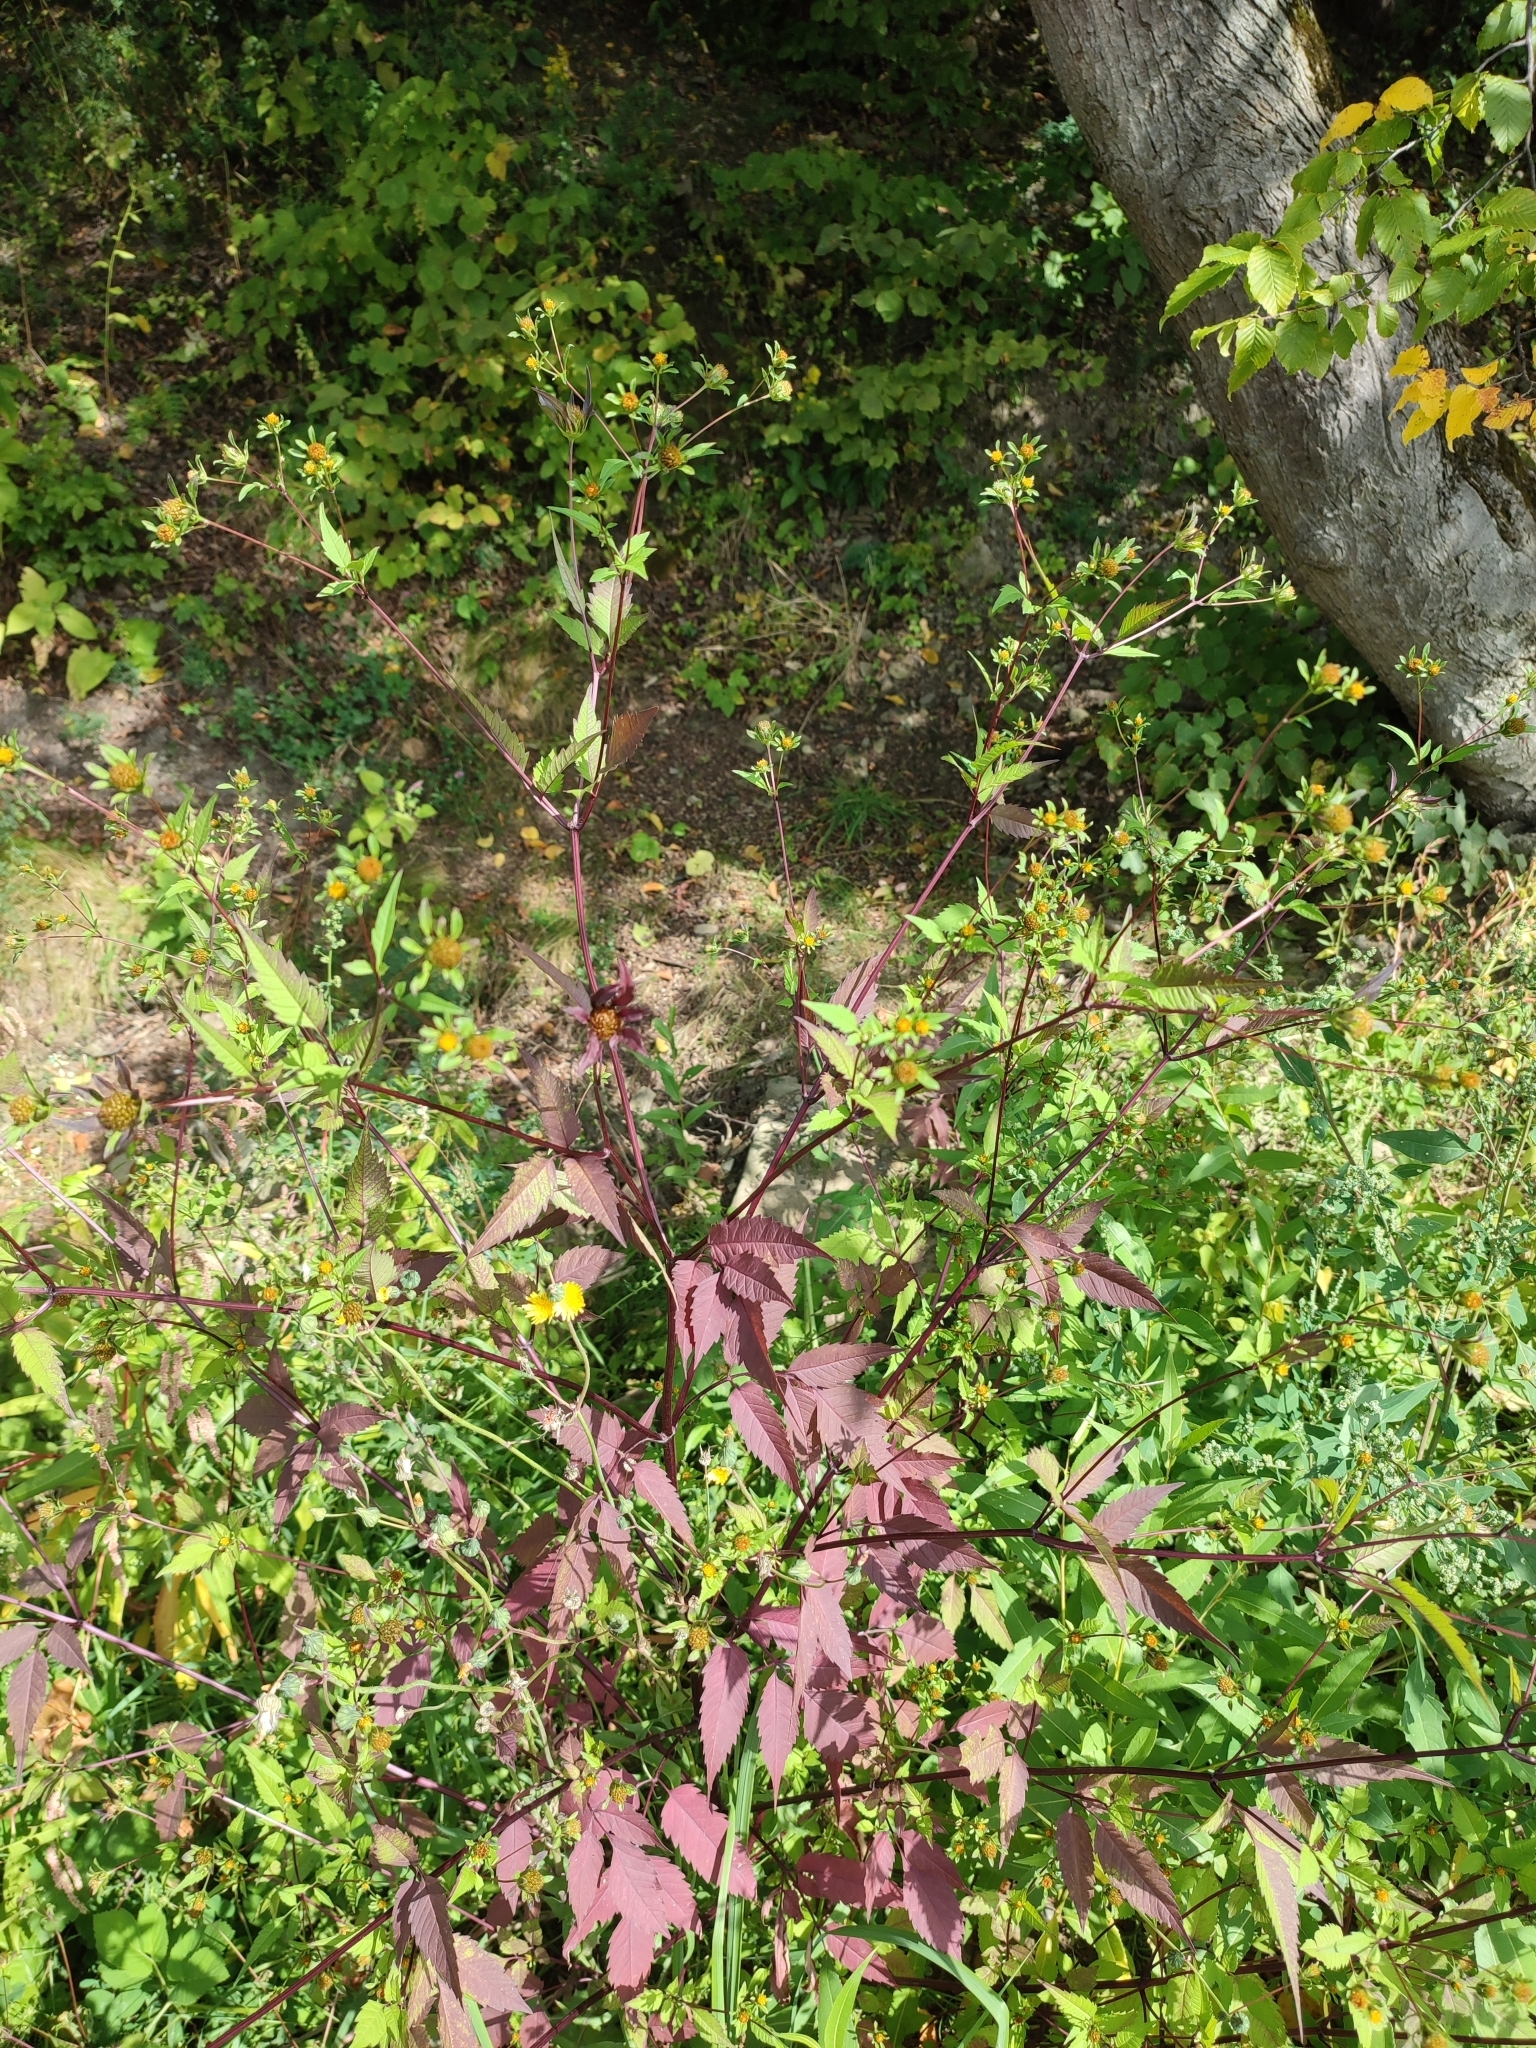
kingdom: Plantae
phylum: Tracheophyta
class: Magnoliopsida
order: Asterales
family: Asteraceae
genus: Bidens
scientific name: Bidens frondosa
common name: Beggarticks
